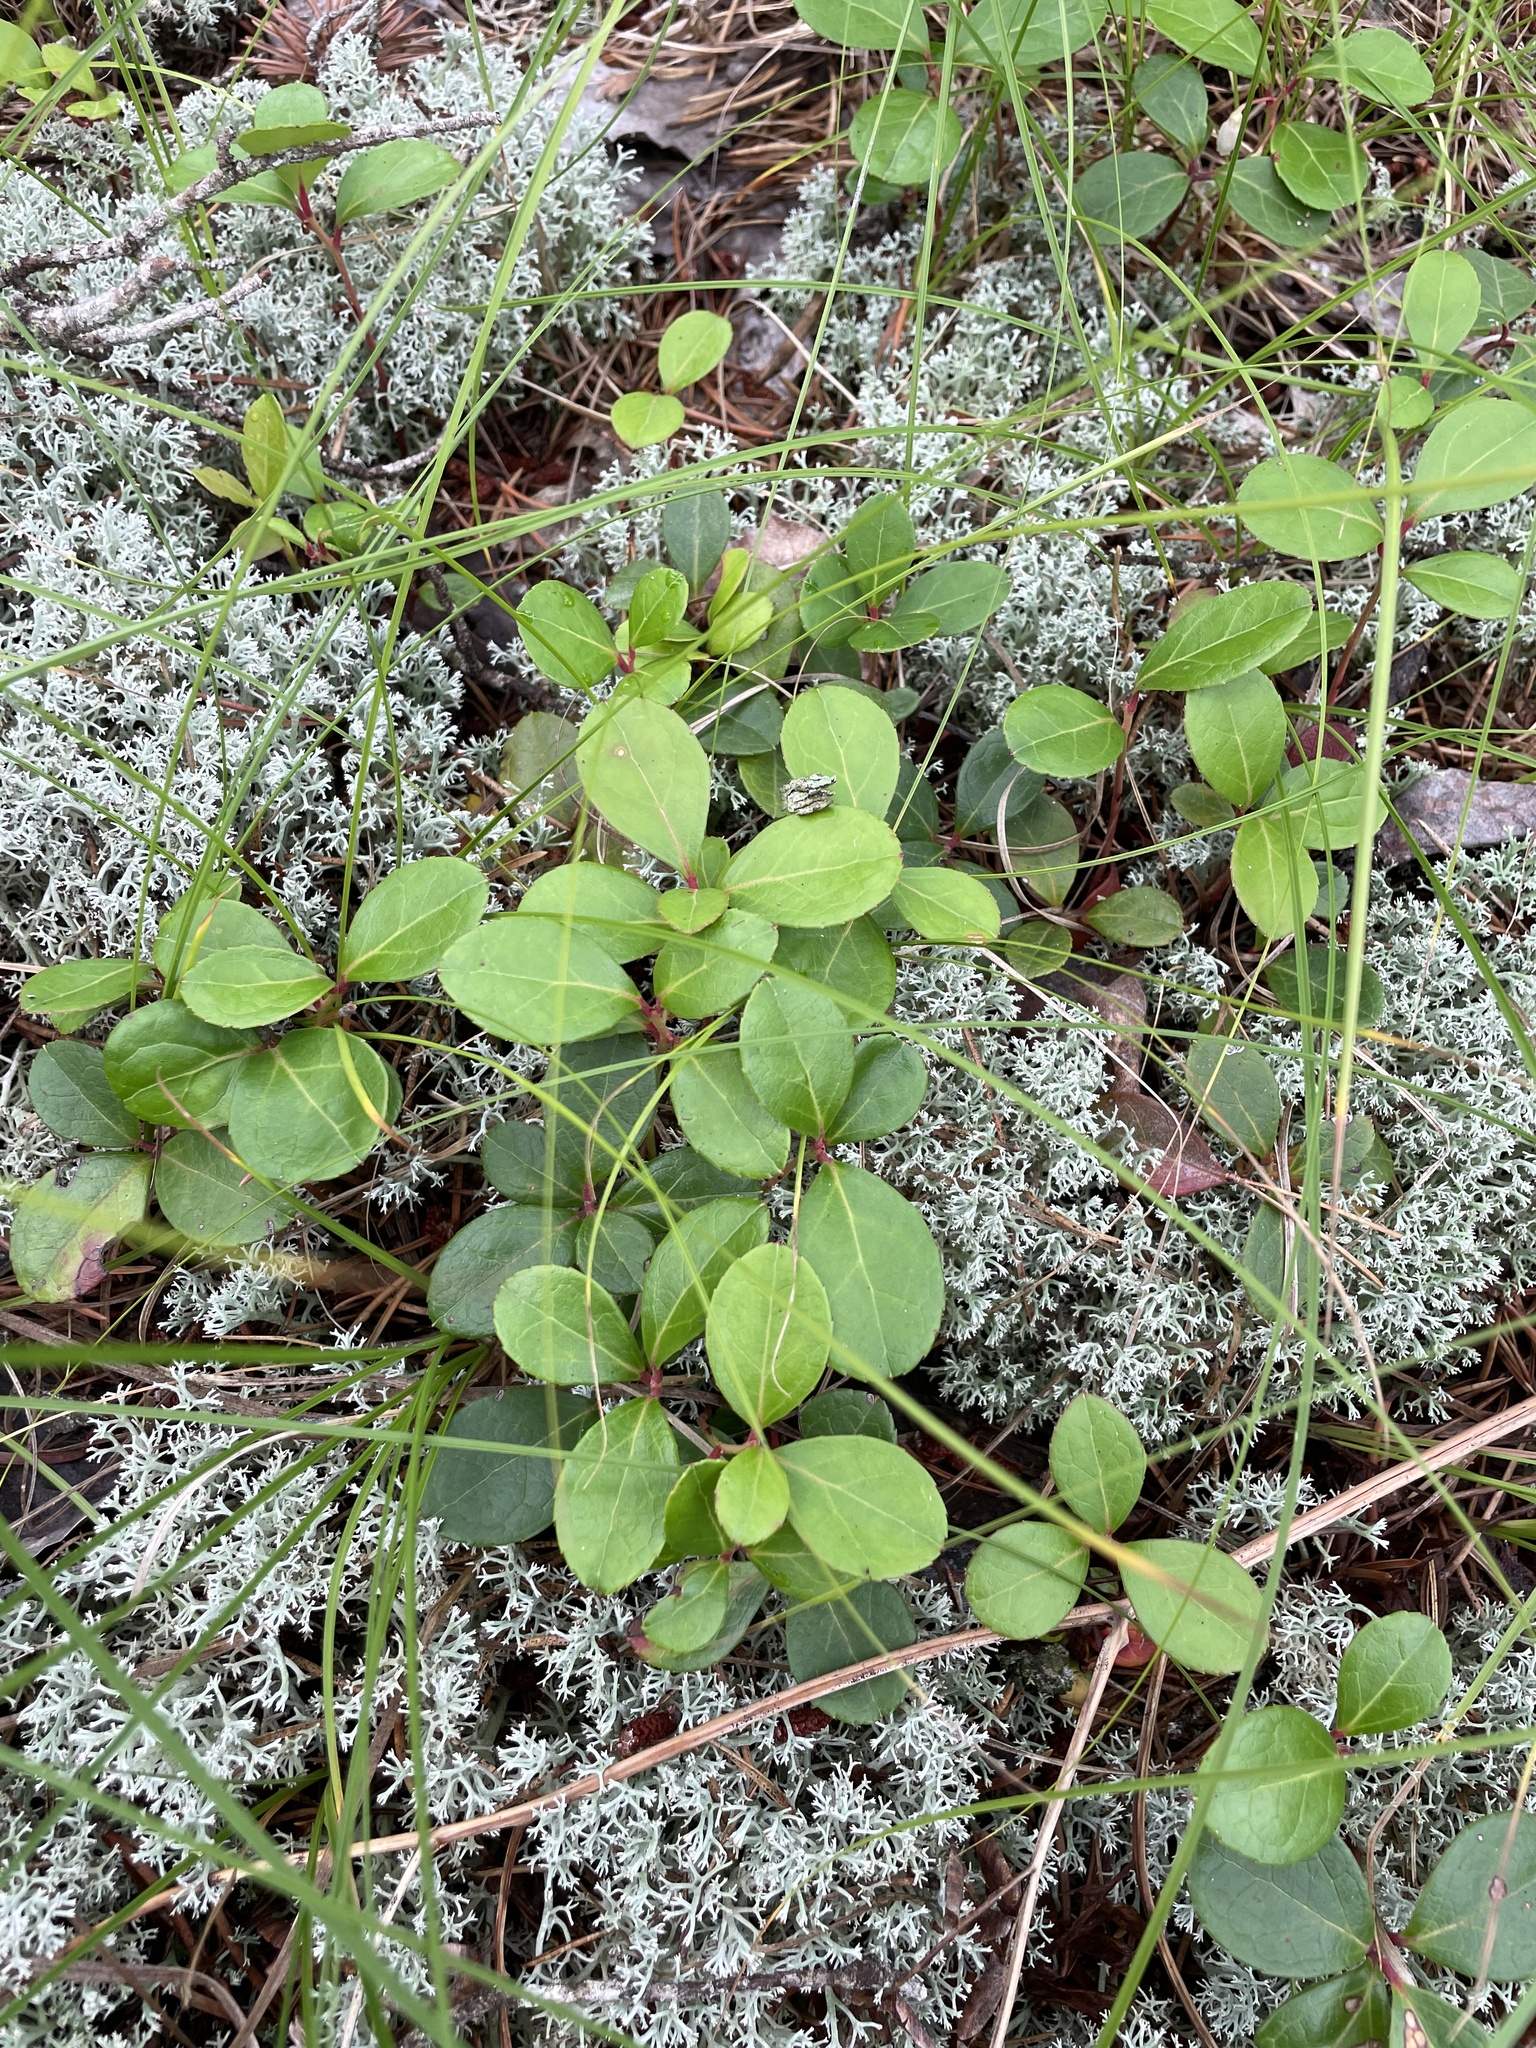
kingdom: Plantae
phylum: Tracheophyta
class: Magnoliopsida
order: Ericales
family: Ericaceae
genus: Gaultheria
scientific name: Gaultheria procumbens
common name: Checkerberry
